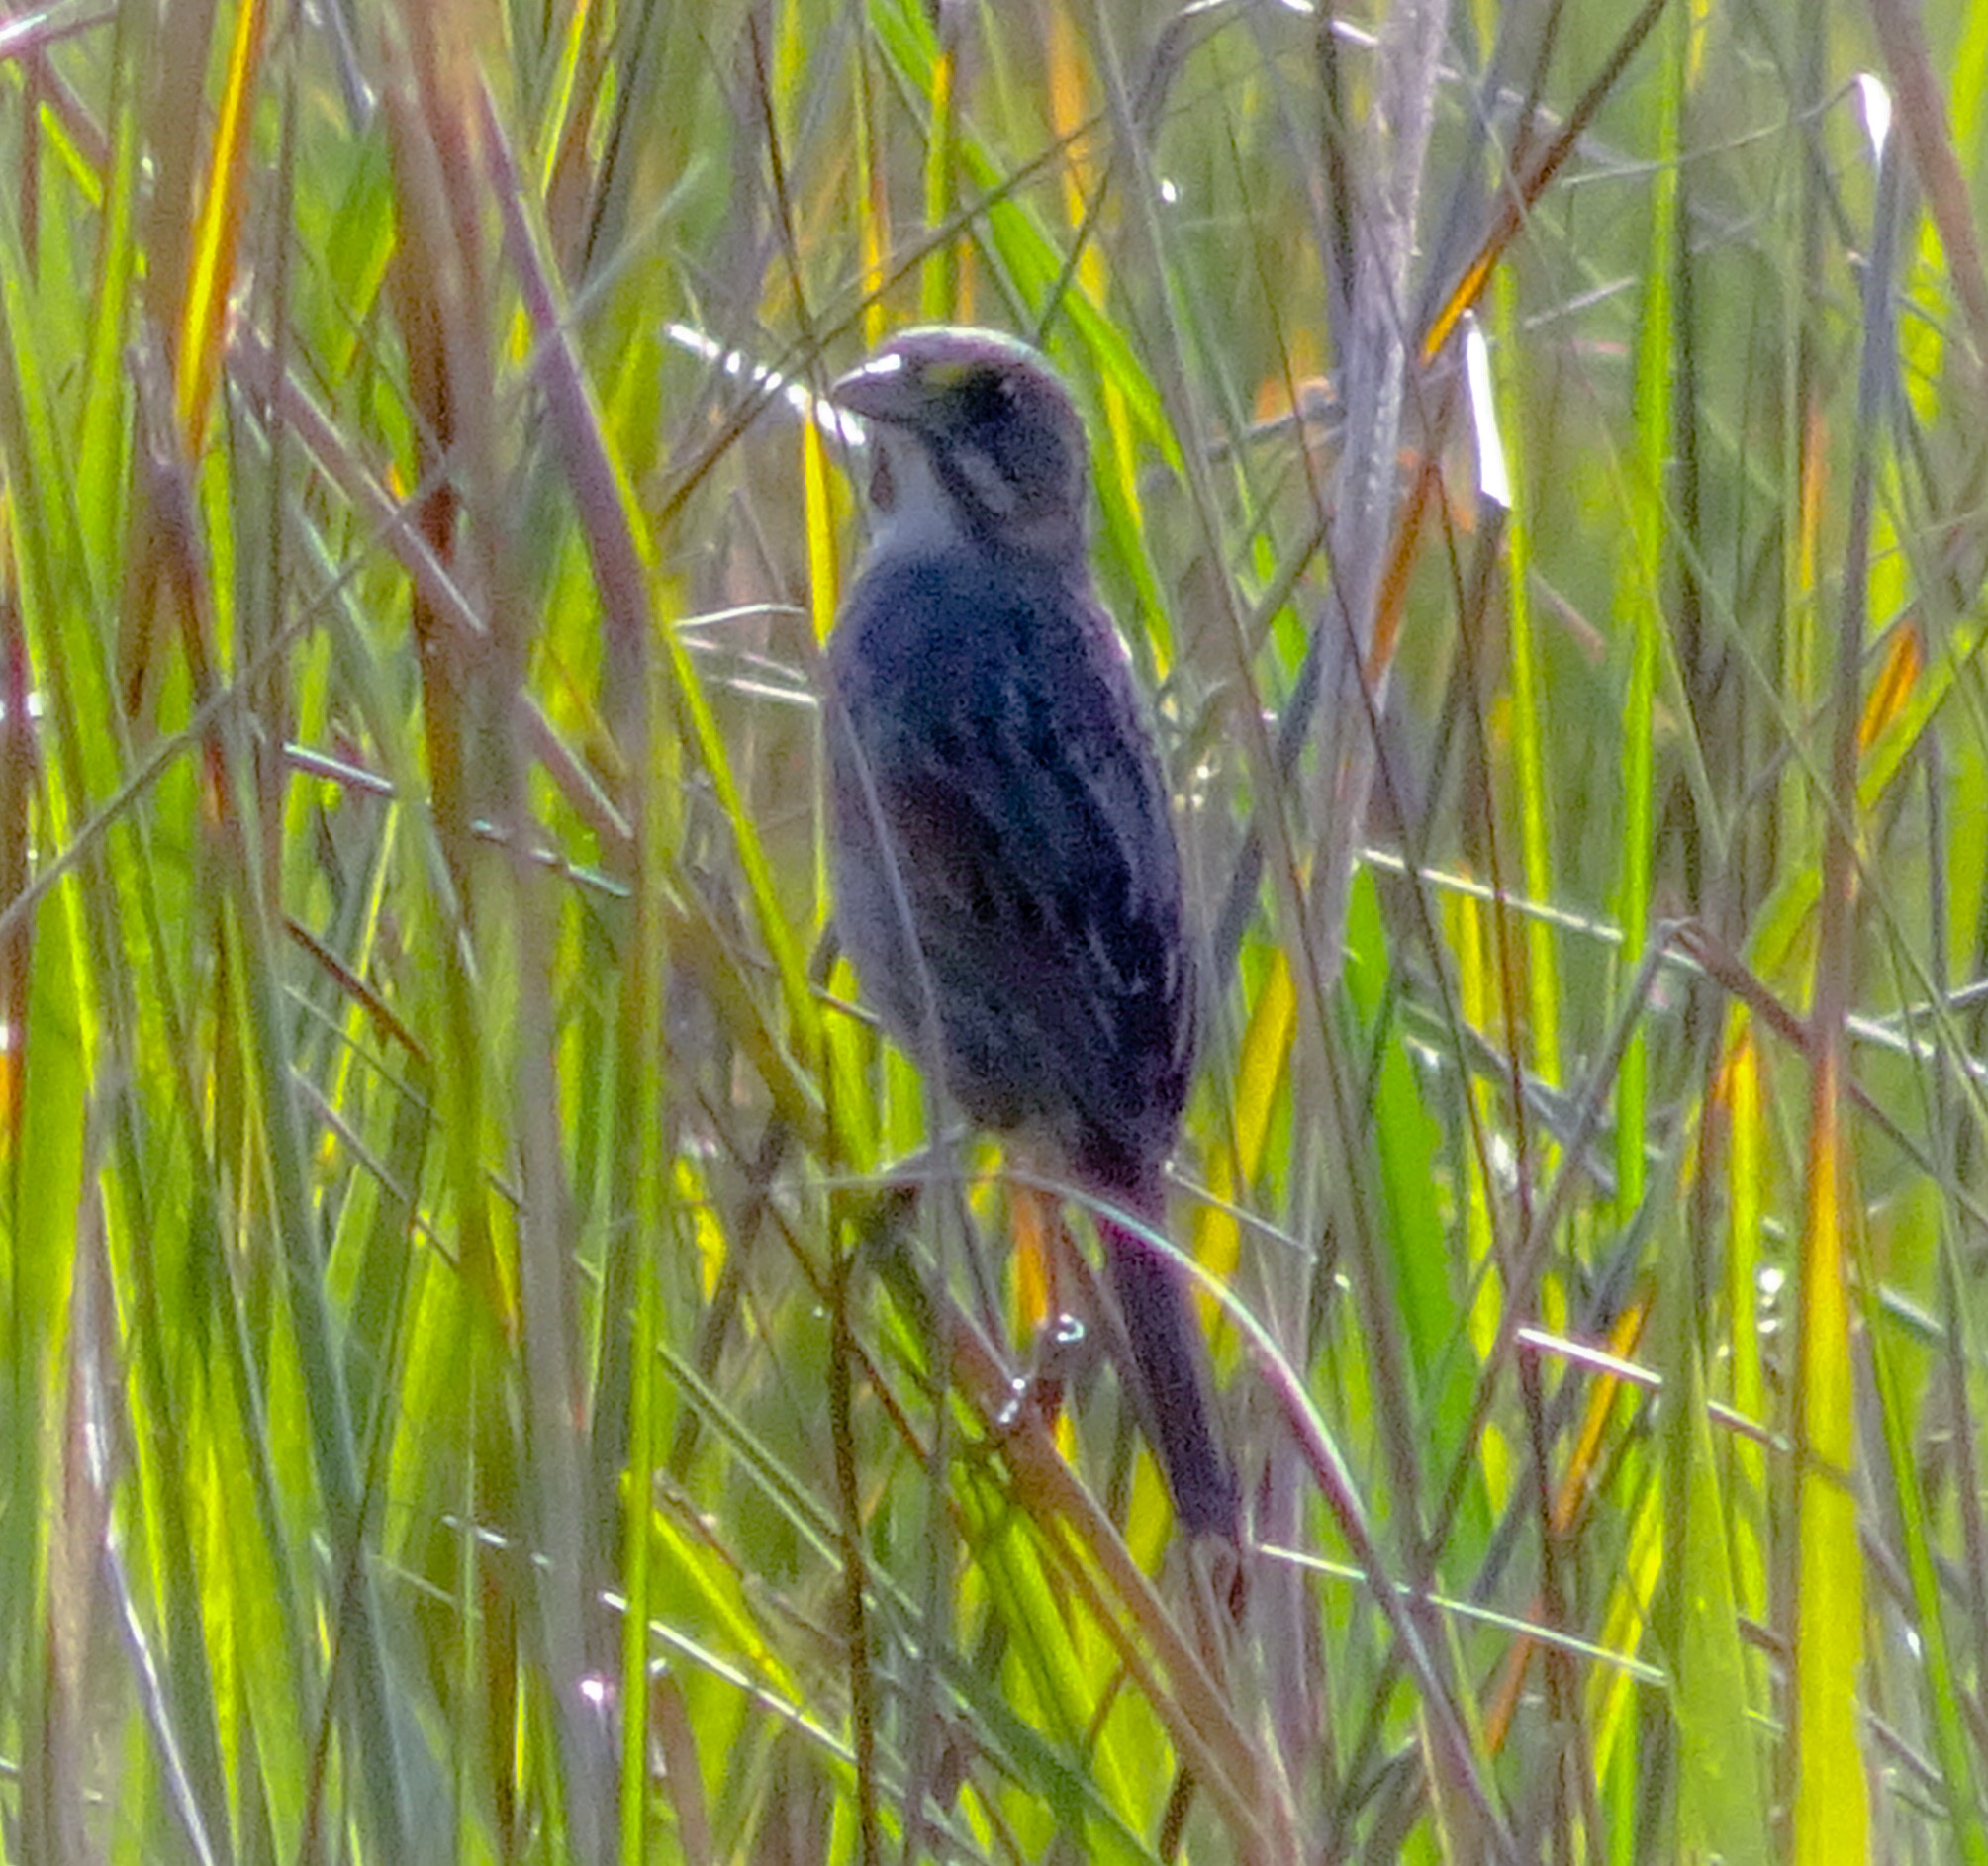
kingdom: Animalia
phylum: Chordata
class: Aves
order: Passeriformes
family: Passerellidae
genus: Ammospiza
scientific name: Ammospiza maritima
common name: Seaside sparrow
